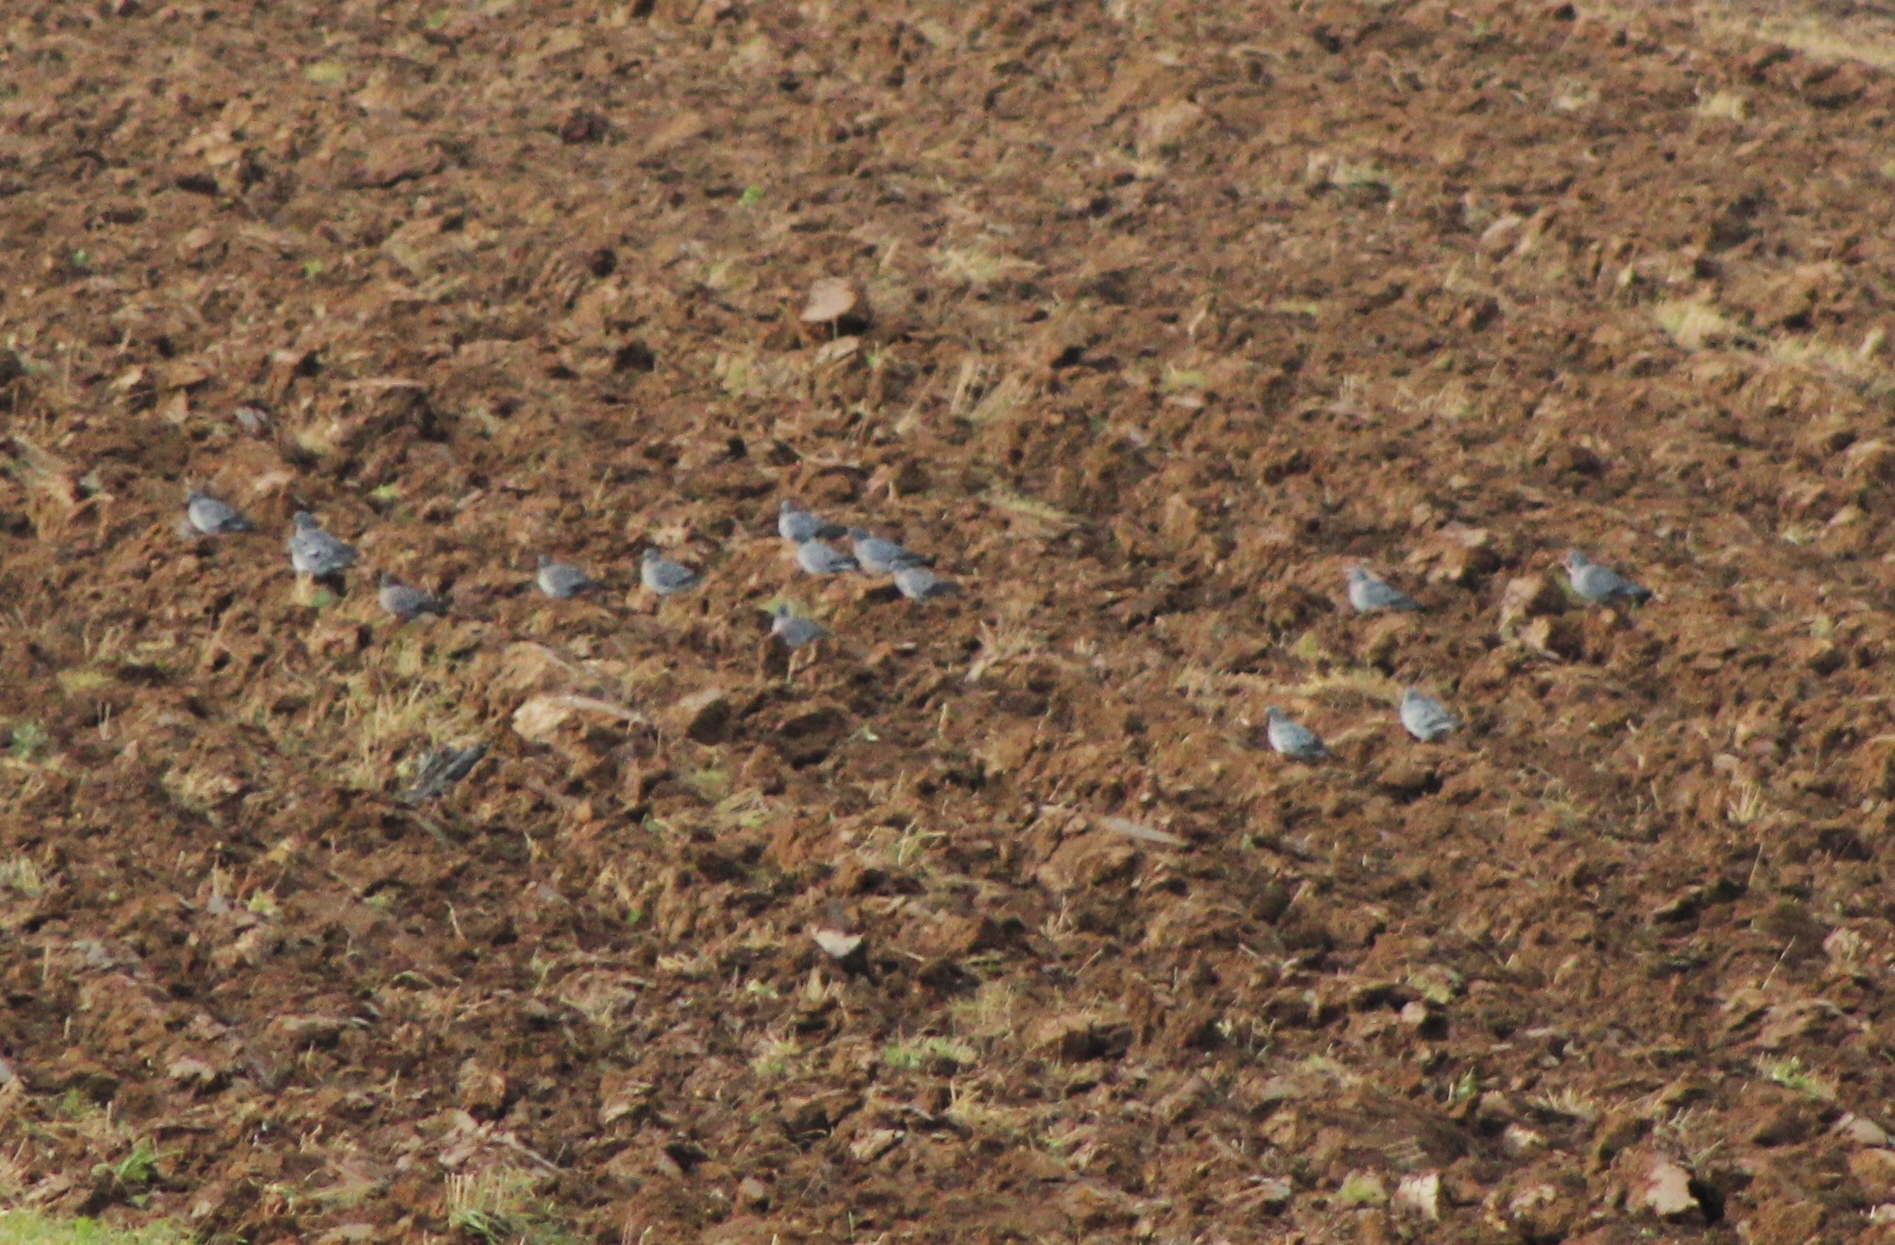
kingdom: Animalia
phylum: Chordata
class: Aves
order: Columbiformes
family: Columbidae
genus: Columba
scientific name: Columba oenas
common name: Stock dove
